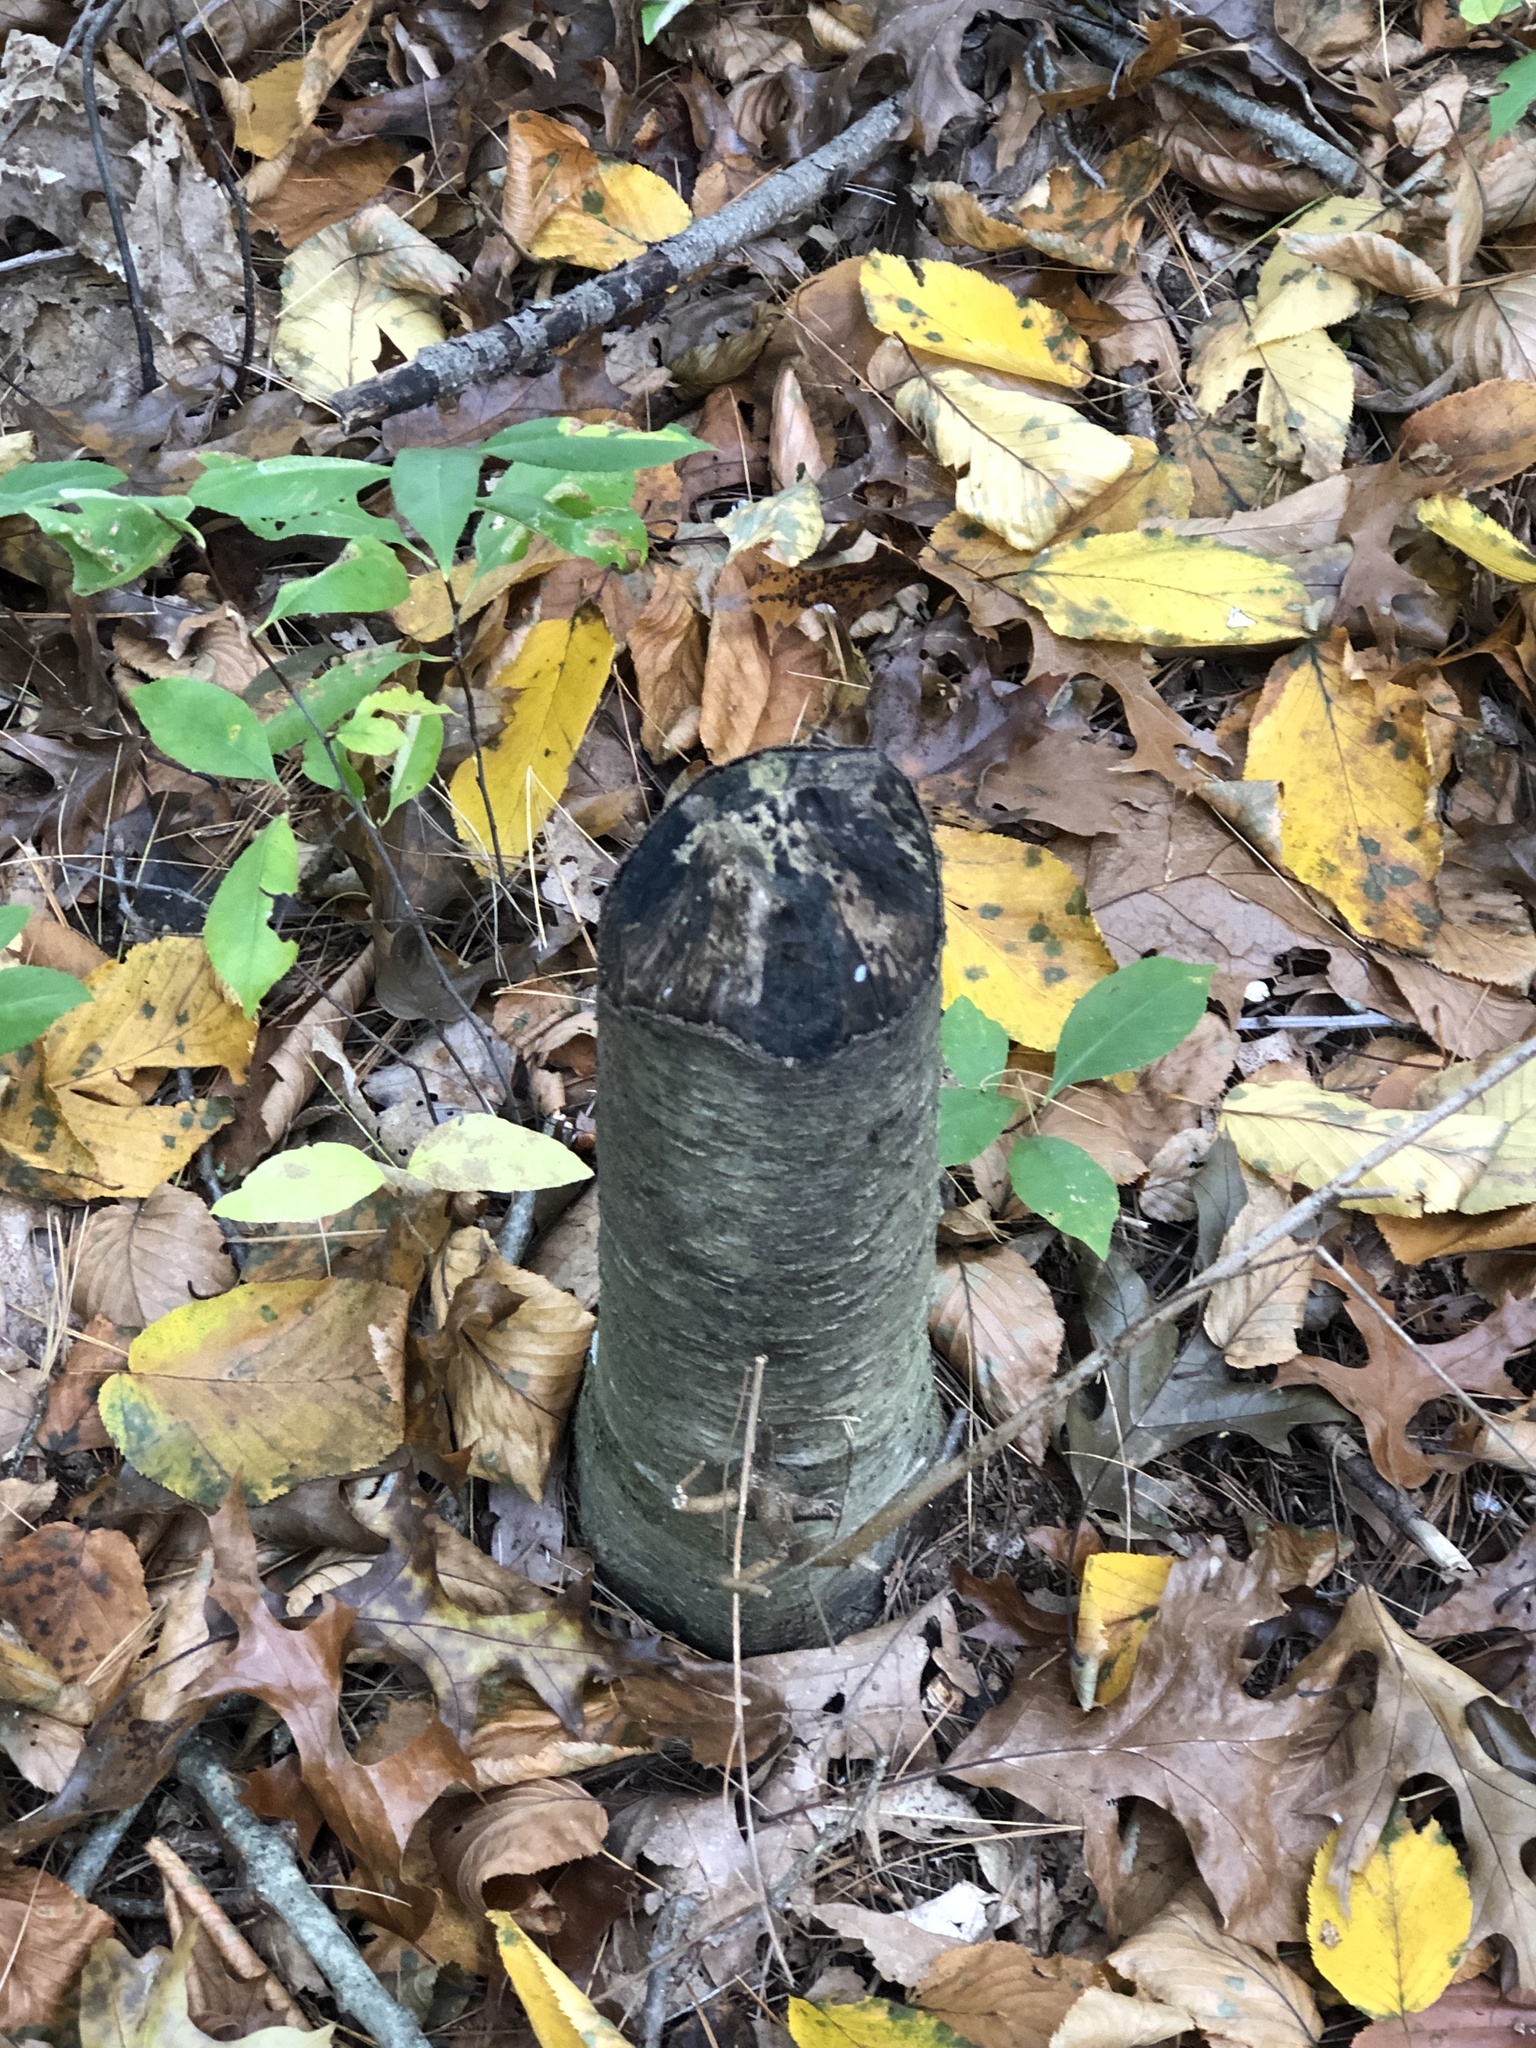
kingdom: Animalia
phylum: Chordata
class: Mammalia
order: Rodentia
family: Castoridae
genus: Castor
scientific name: Castor canadensis
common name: American beaver
